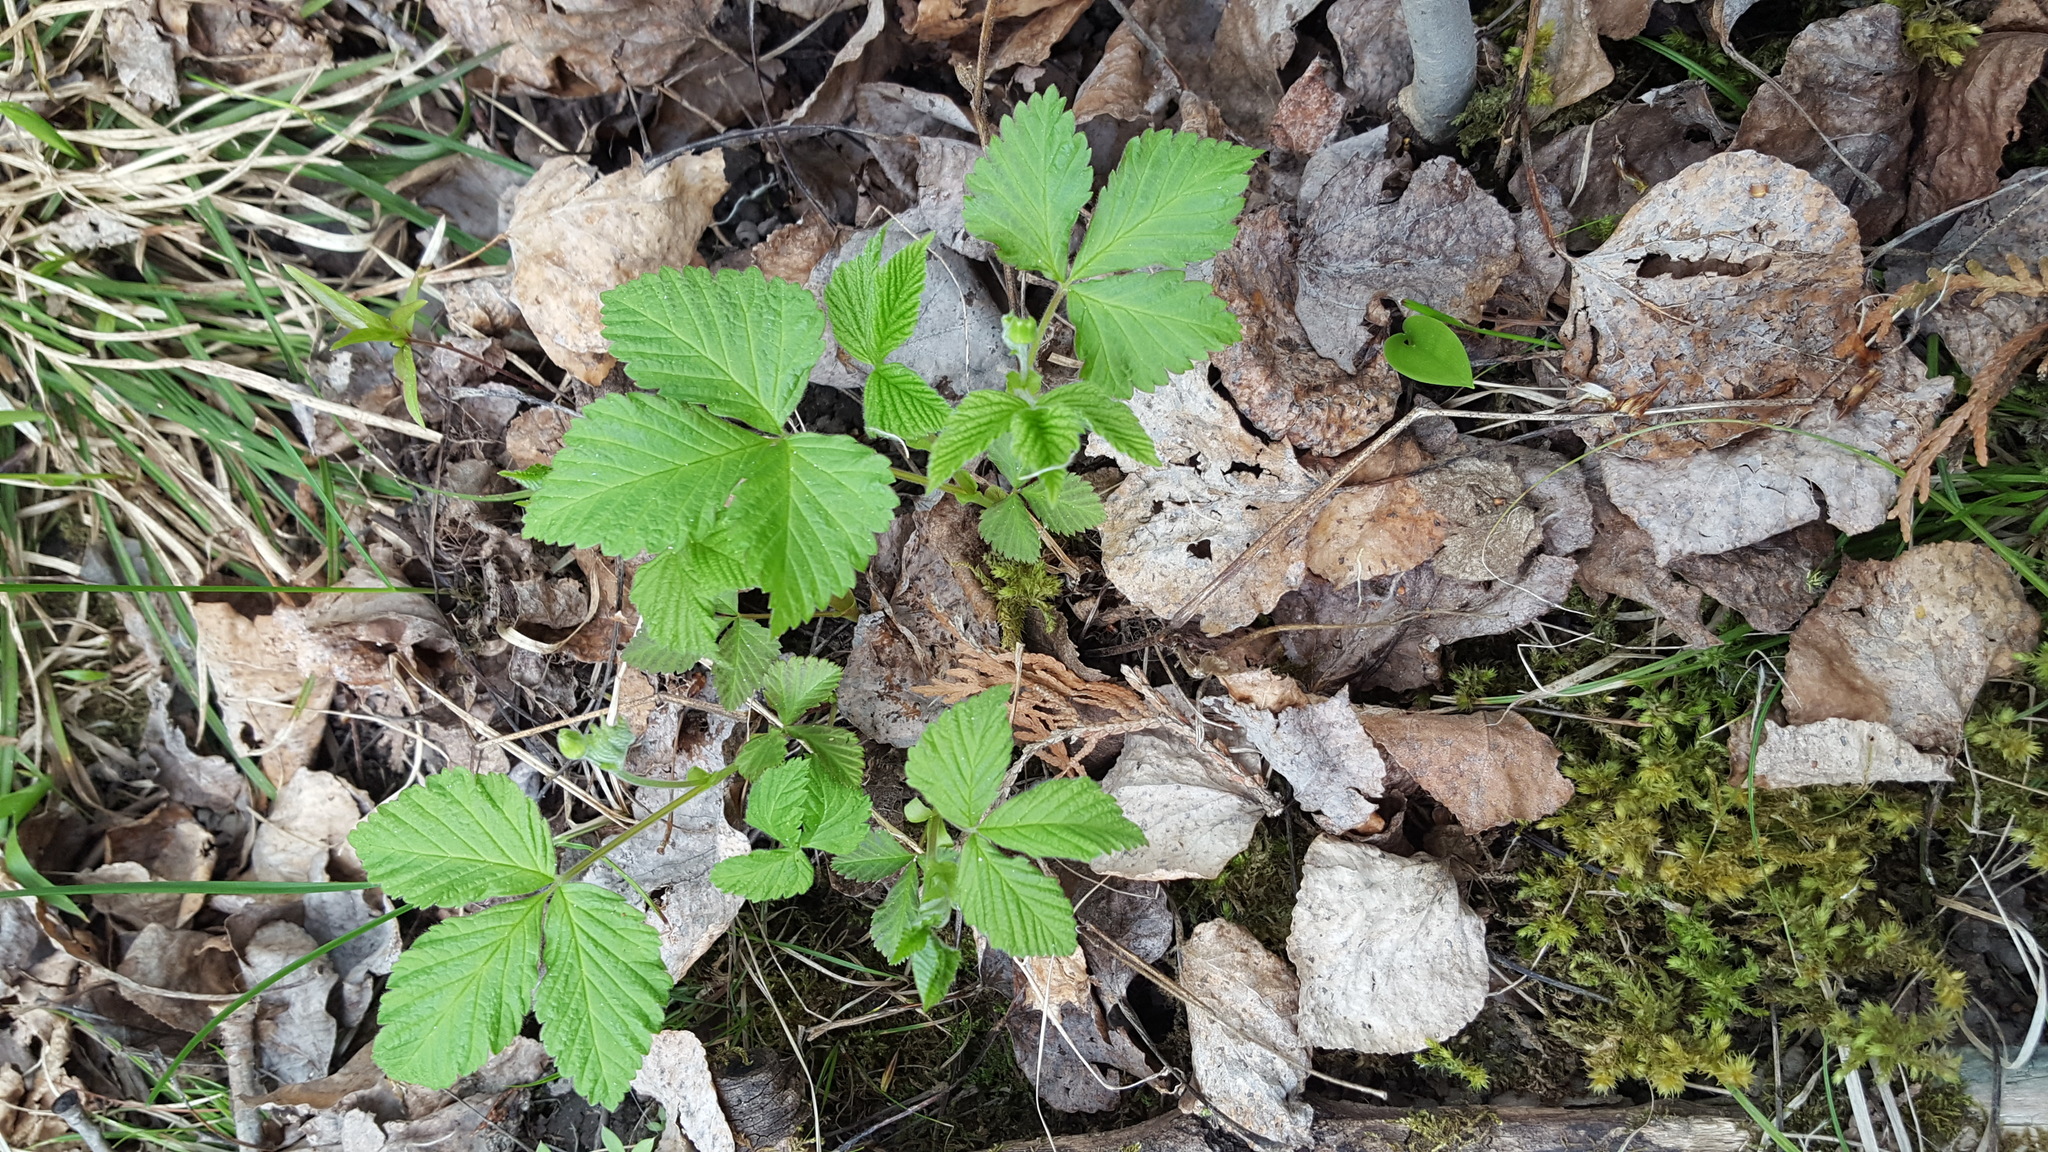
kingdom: Plantae
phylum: Tracheophyta
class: Magnoliopsida
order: Rosales
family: Rosaceae
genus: Rubus
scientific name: Rubus pubescens
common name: Dwarf raspberry
